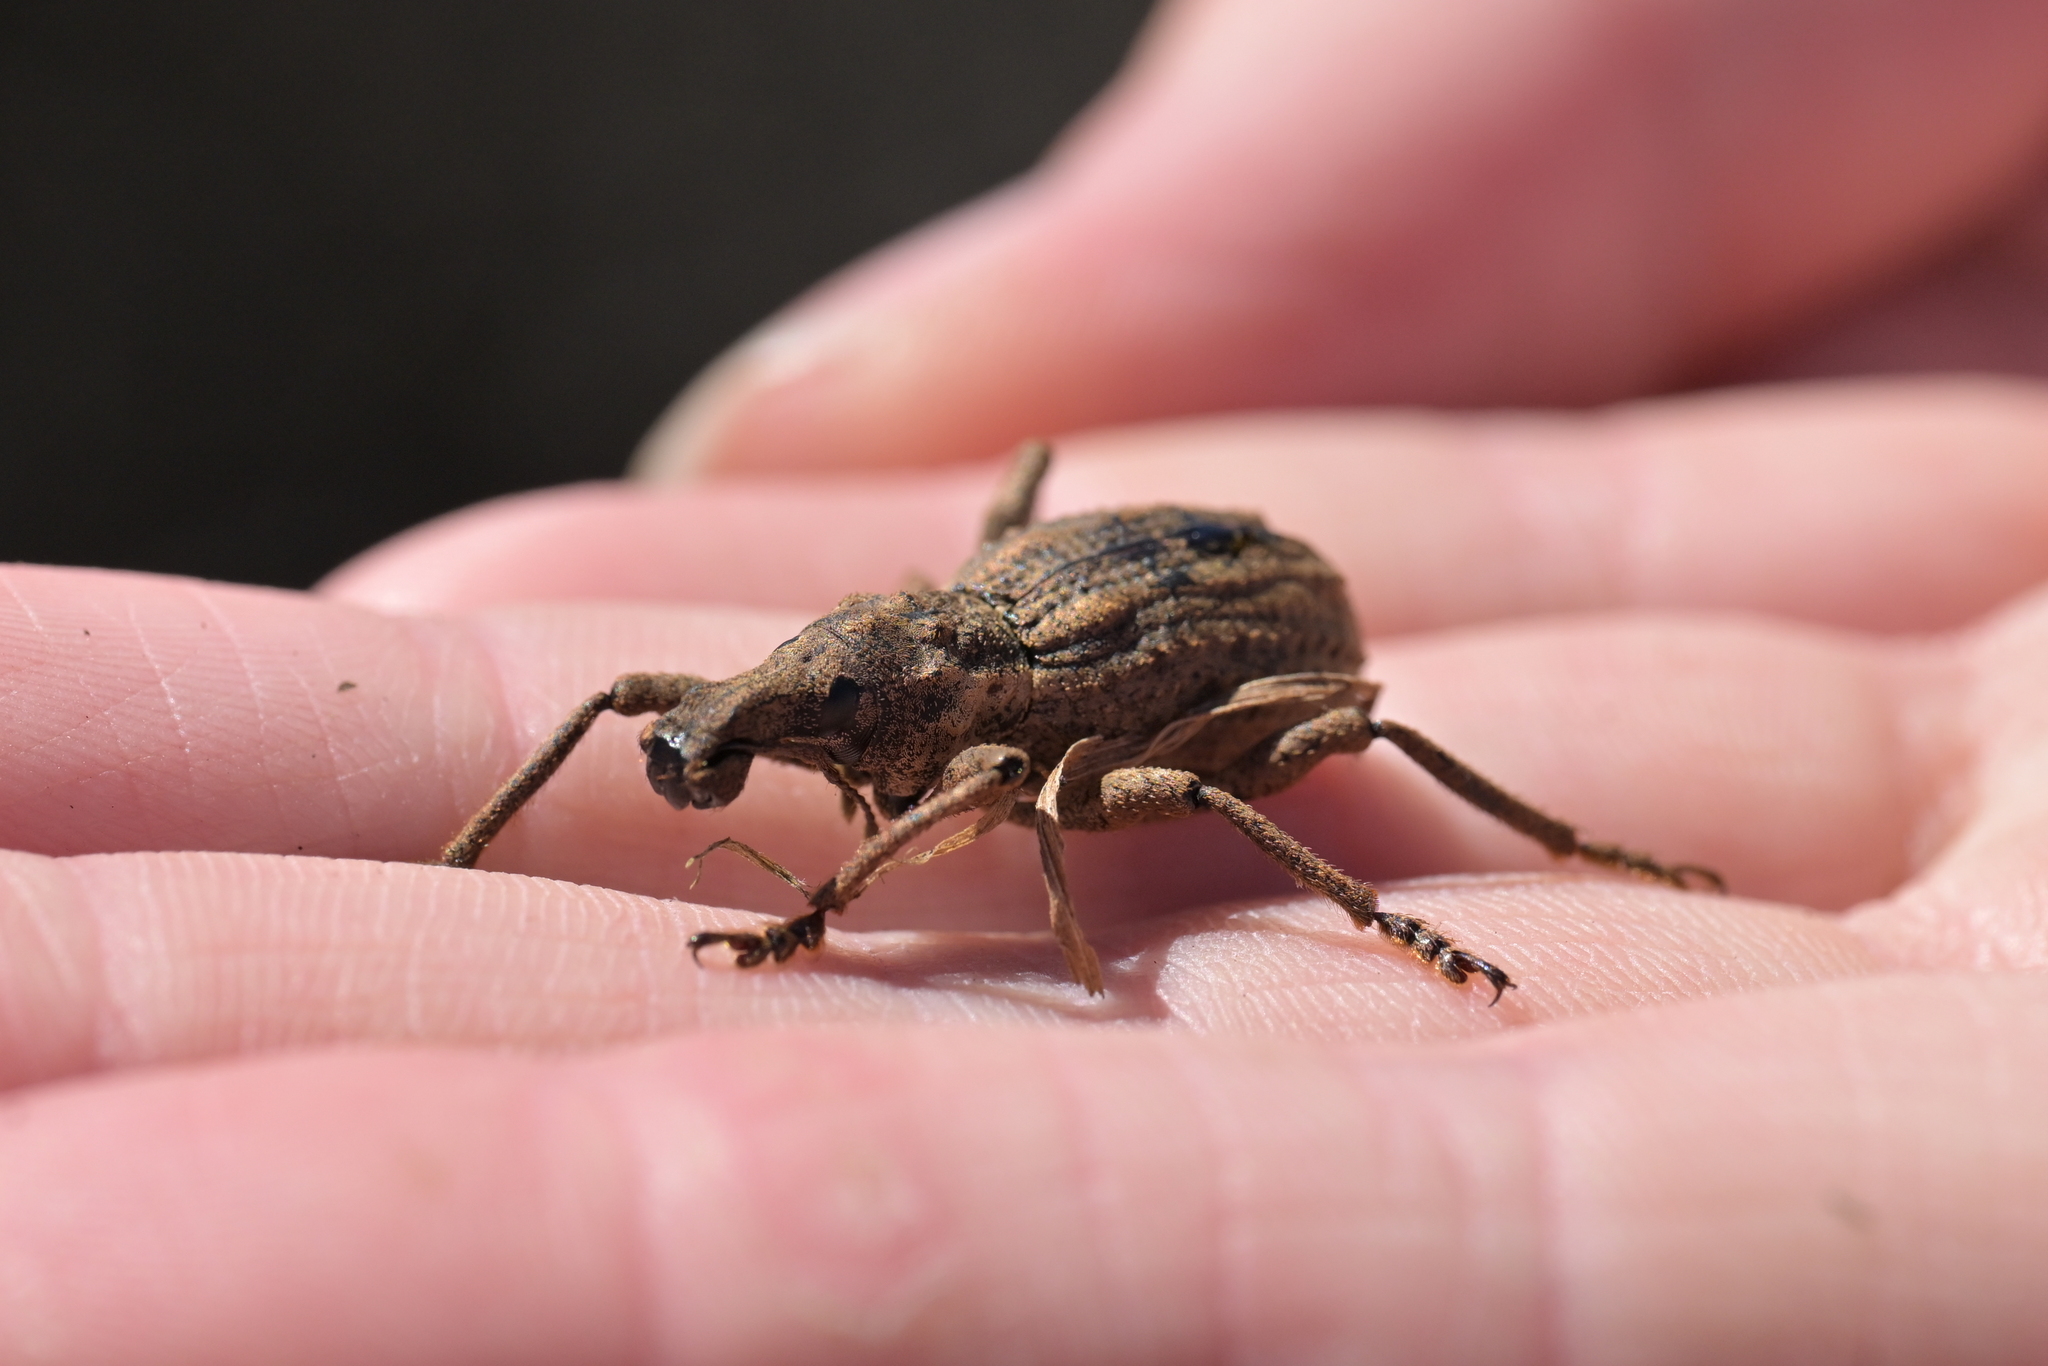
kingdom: Animalia
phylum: Arthropoda
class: Insecta
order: Coleoptera
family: Curculionidae
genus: Anagotus
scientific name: Anagotus fairburni
